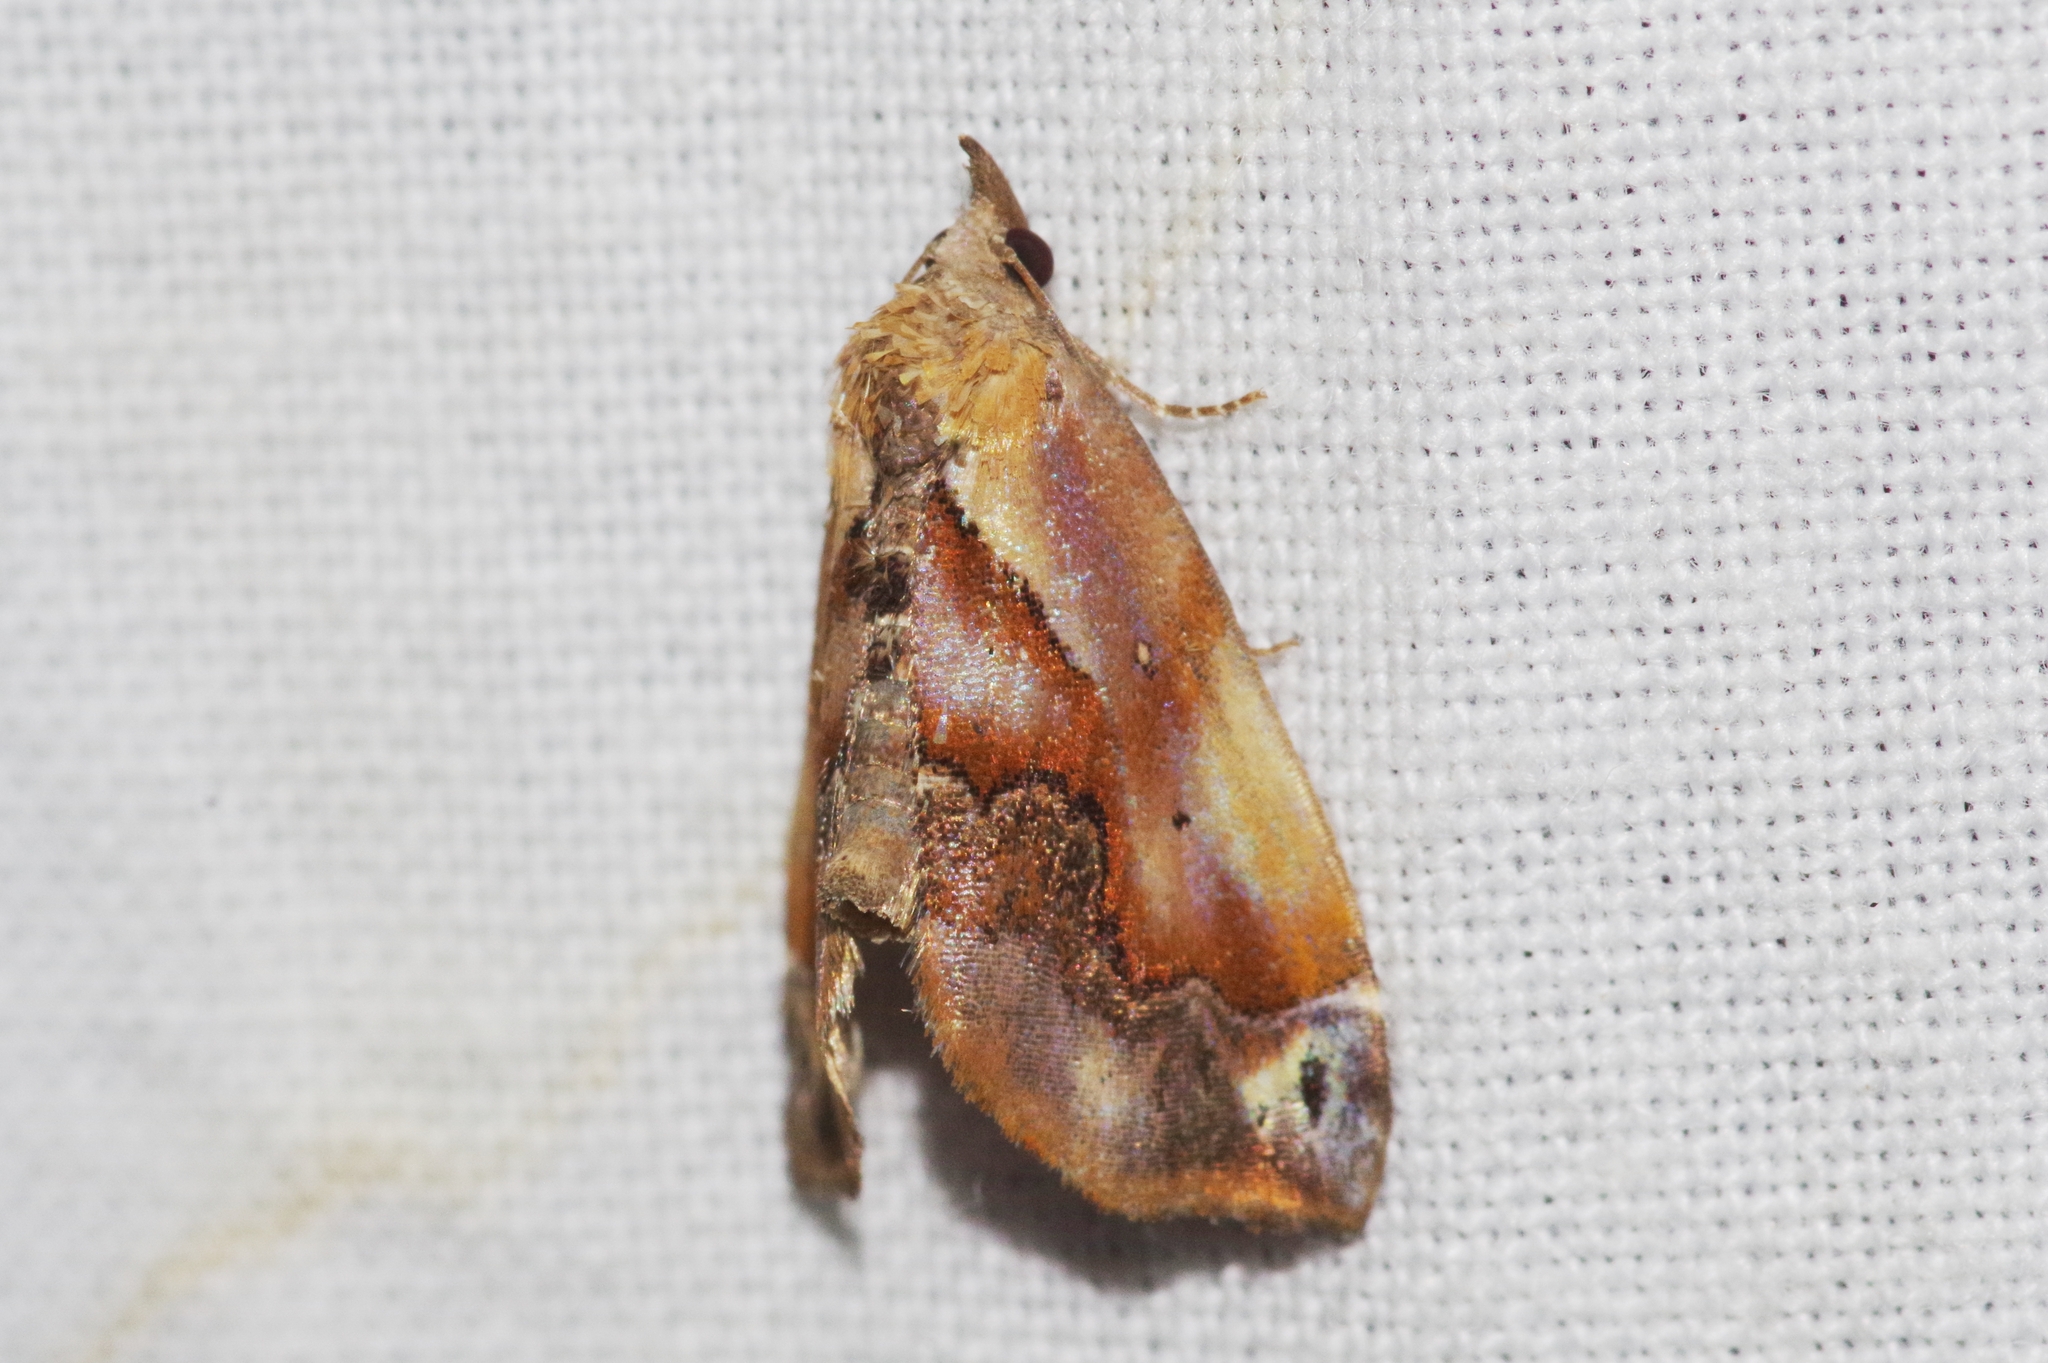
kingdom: Animalia
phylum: Arthropoda
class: Insecta
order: Lepidoptera
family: Noctuidae
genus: Lophomilia
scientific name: Lophomilia polybapta
